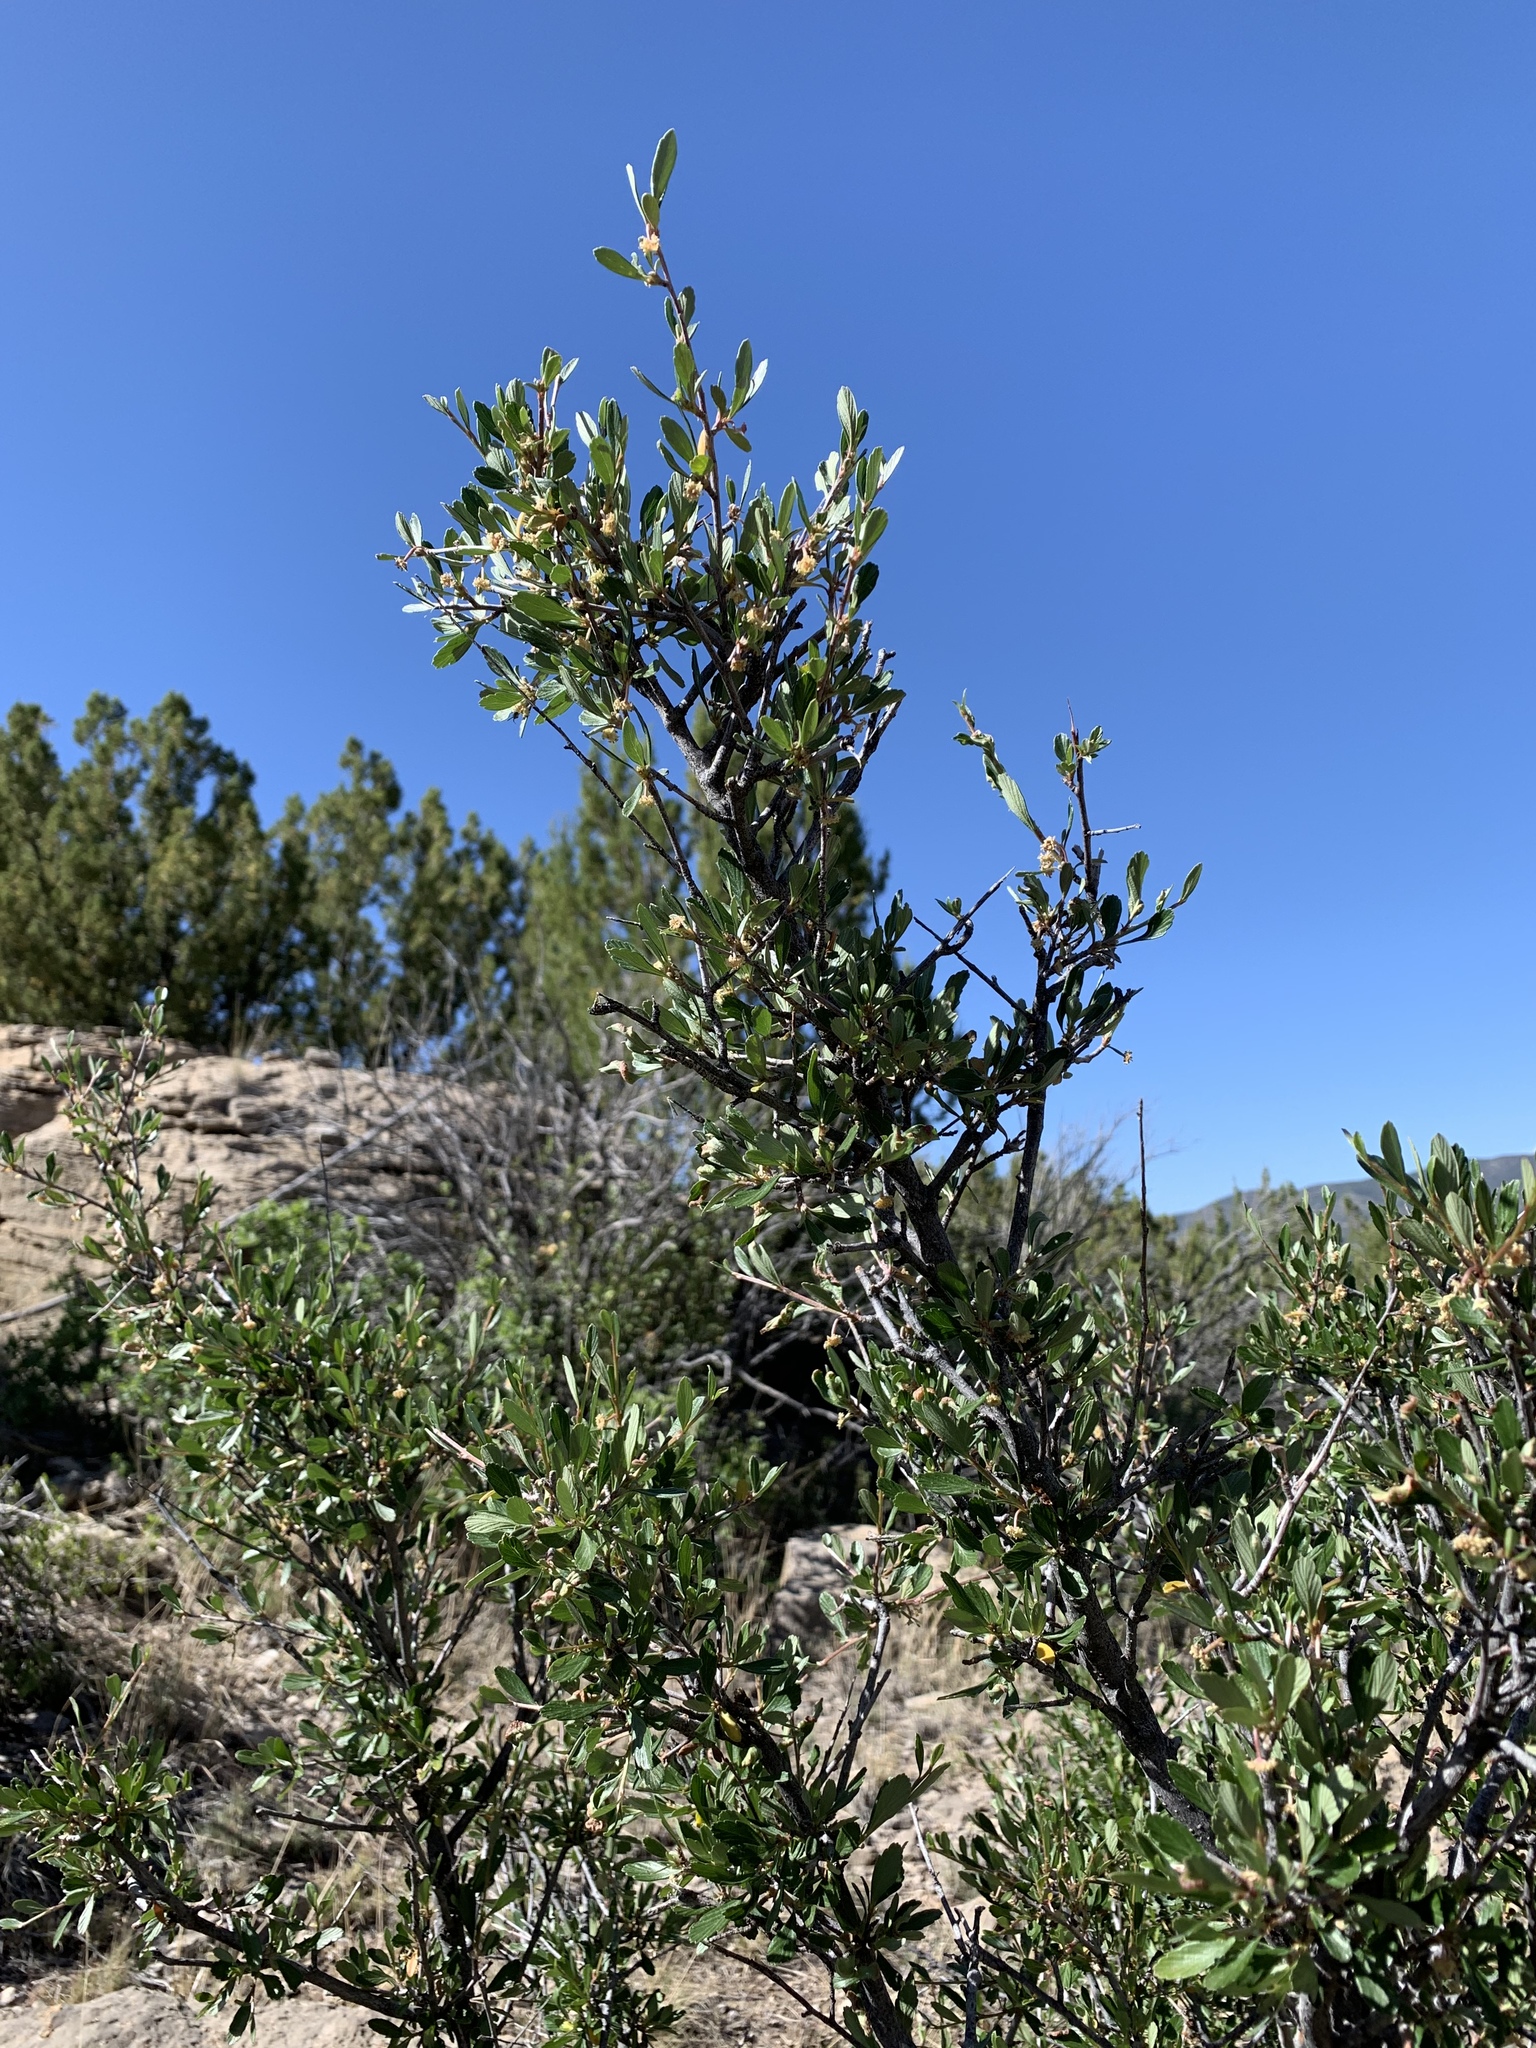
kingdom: Plantae
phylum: Tracheophyta
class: Magnoliopsida
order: Rosales
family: Rosaceae
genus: Cercocarpus
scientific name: Cercocarpus breviflorus
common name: Wright's mountain-mahogany
